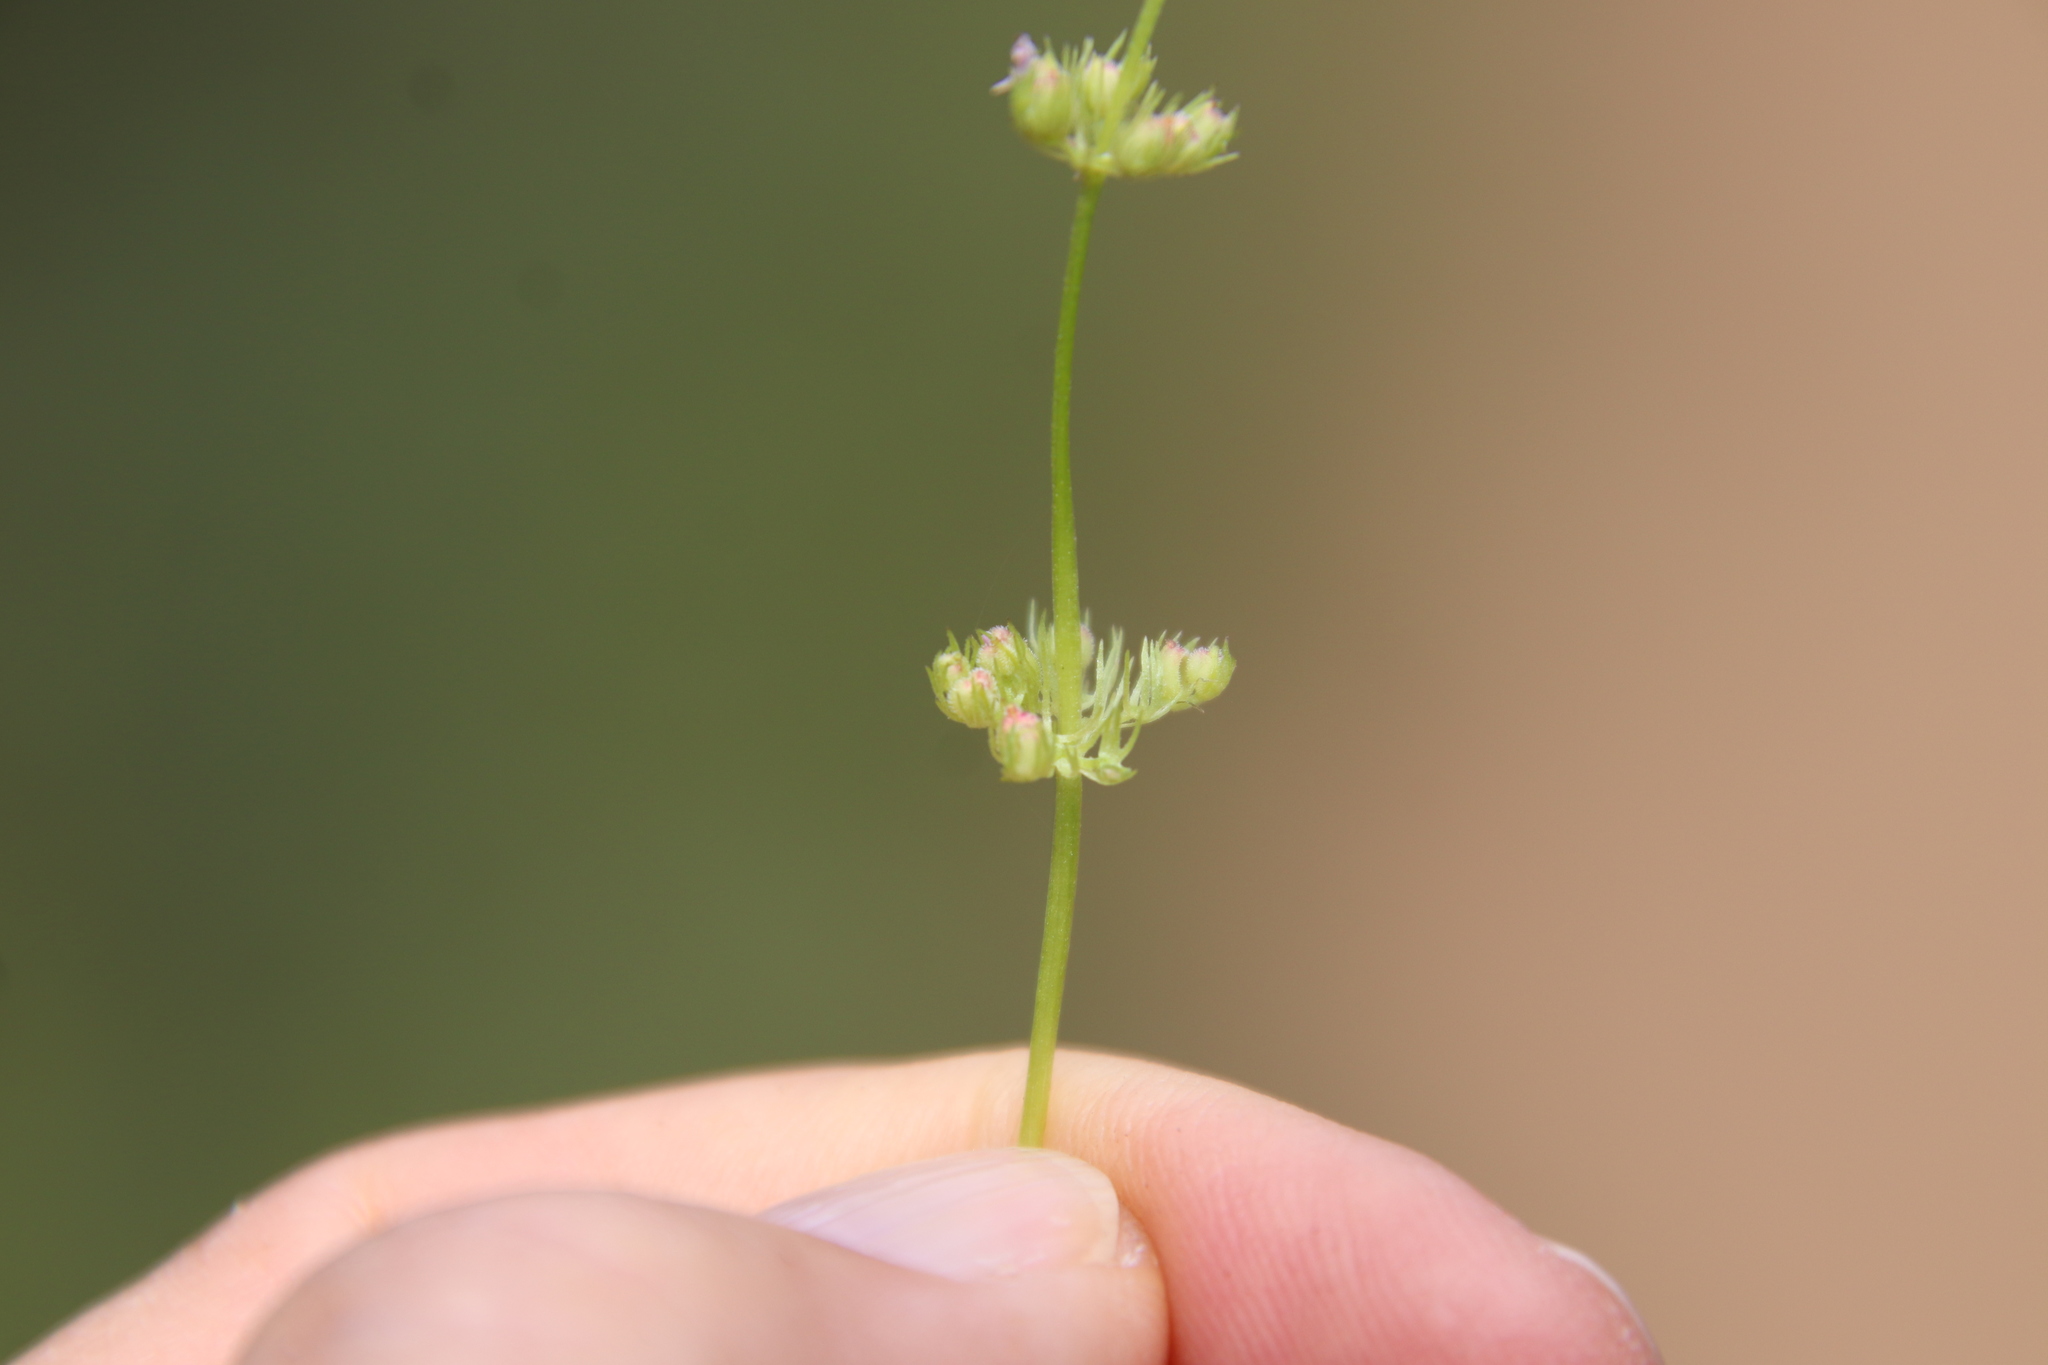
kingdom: Plantae
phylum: Tracheophyta
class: Magnoliopsida
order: Dipsacales
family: Caprifoliaceae
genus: Plectritis
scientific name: Plectritis brachystemon
